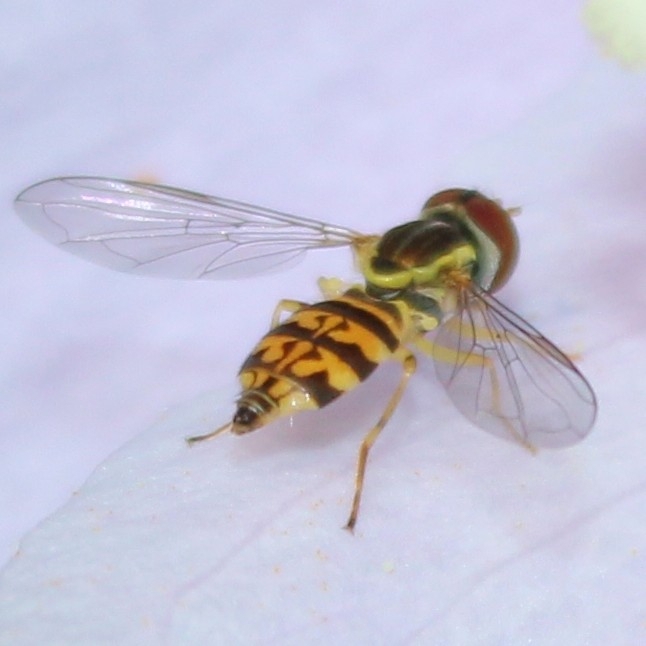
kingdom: Animalia
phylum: Arthropoda
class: Insecta
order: Diptera
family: Syrphidae
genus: Toxomerus
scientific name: Toxomerus geminatus
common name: Eastern calligrapher
